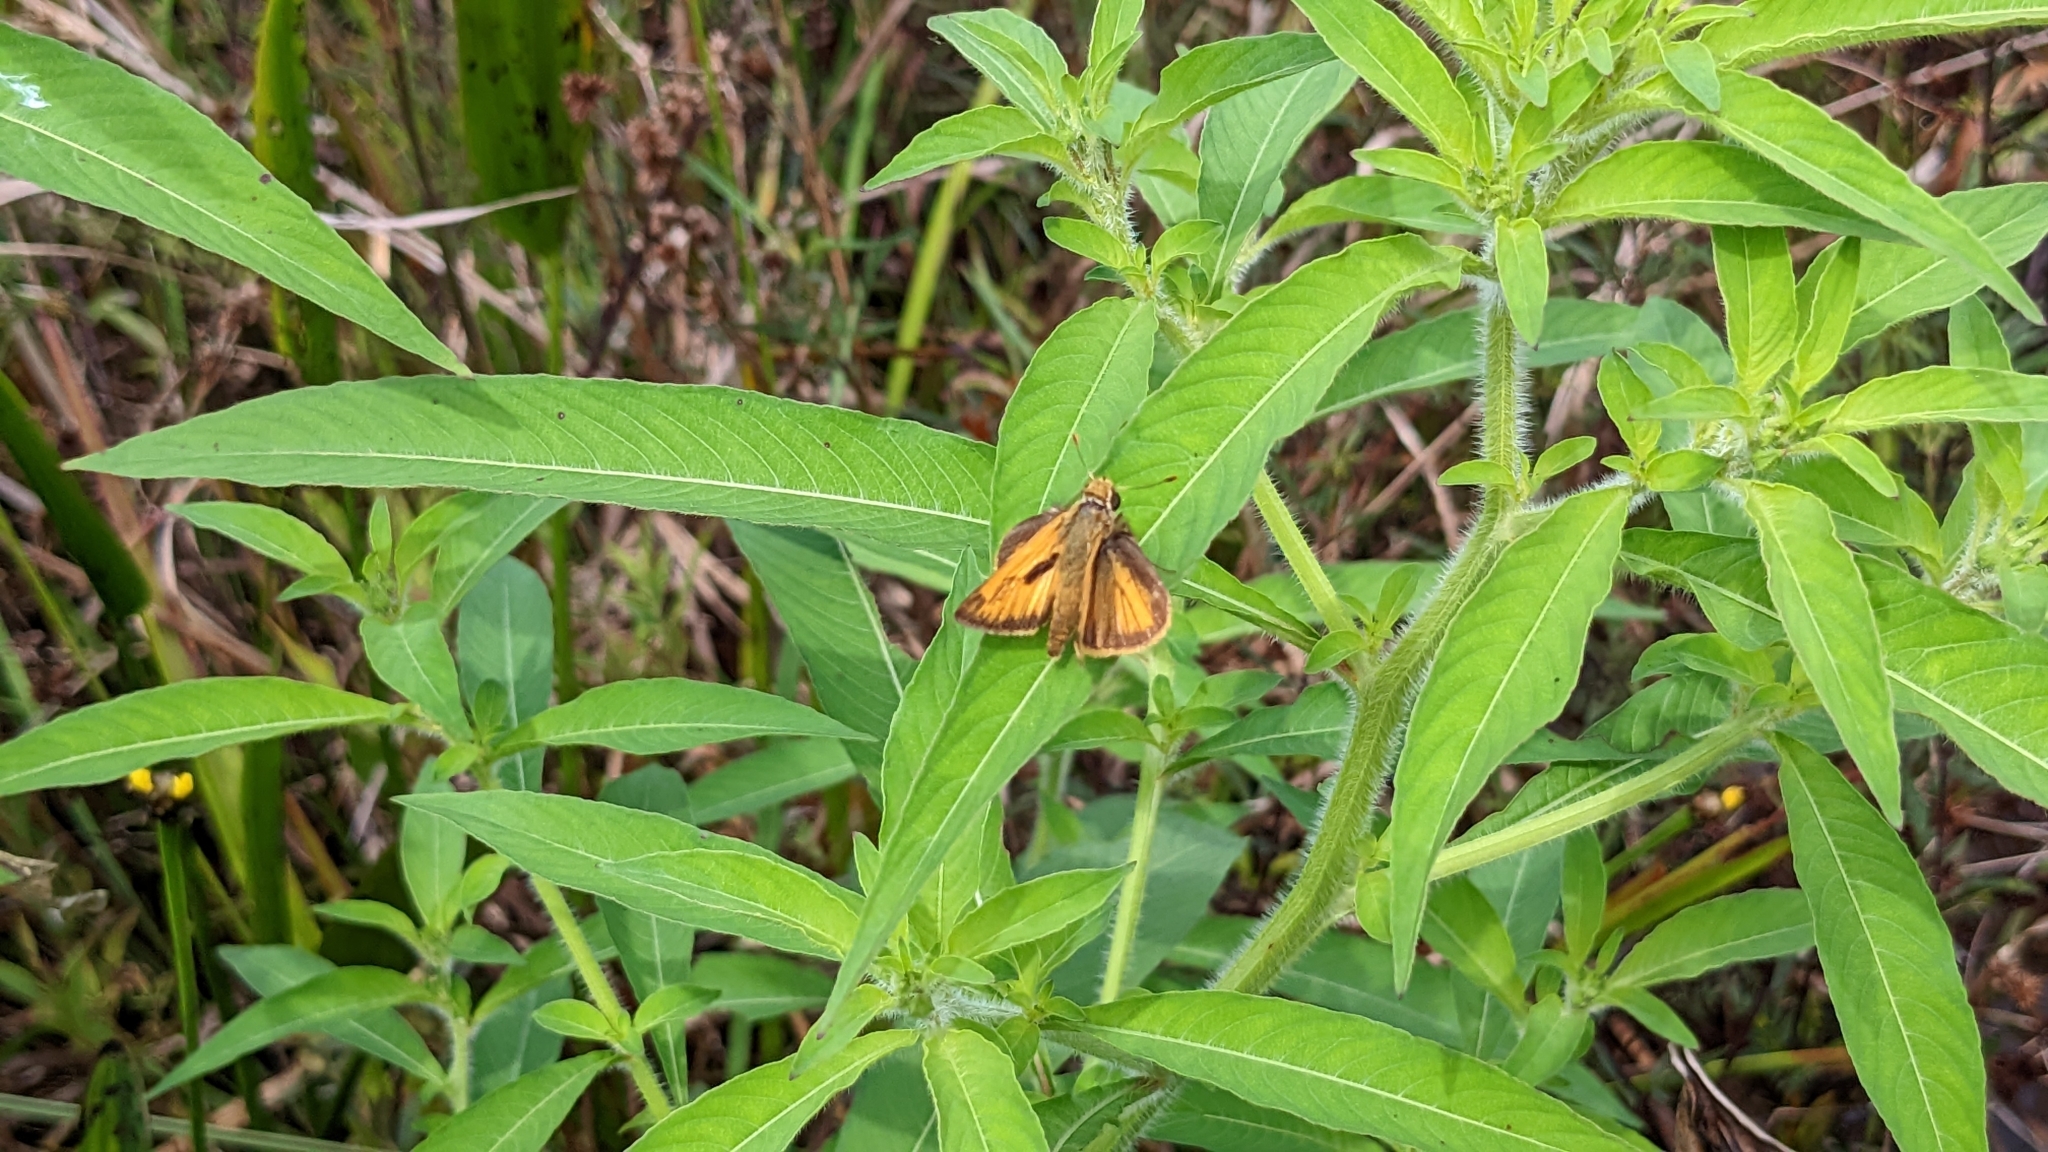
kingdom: Animalia
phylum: Arthropoda
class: Insecta
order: Lepidoptera
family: Hesperiidae
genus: Polites
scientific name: Polites vibex
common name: Whirlabout
